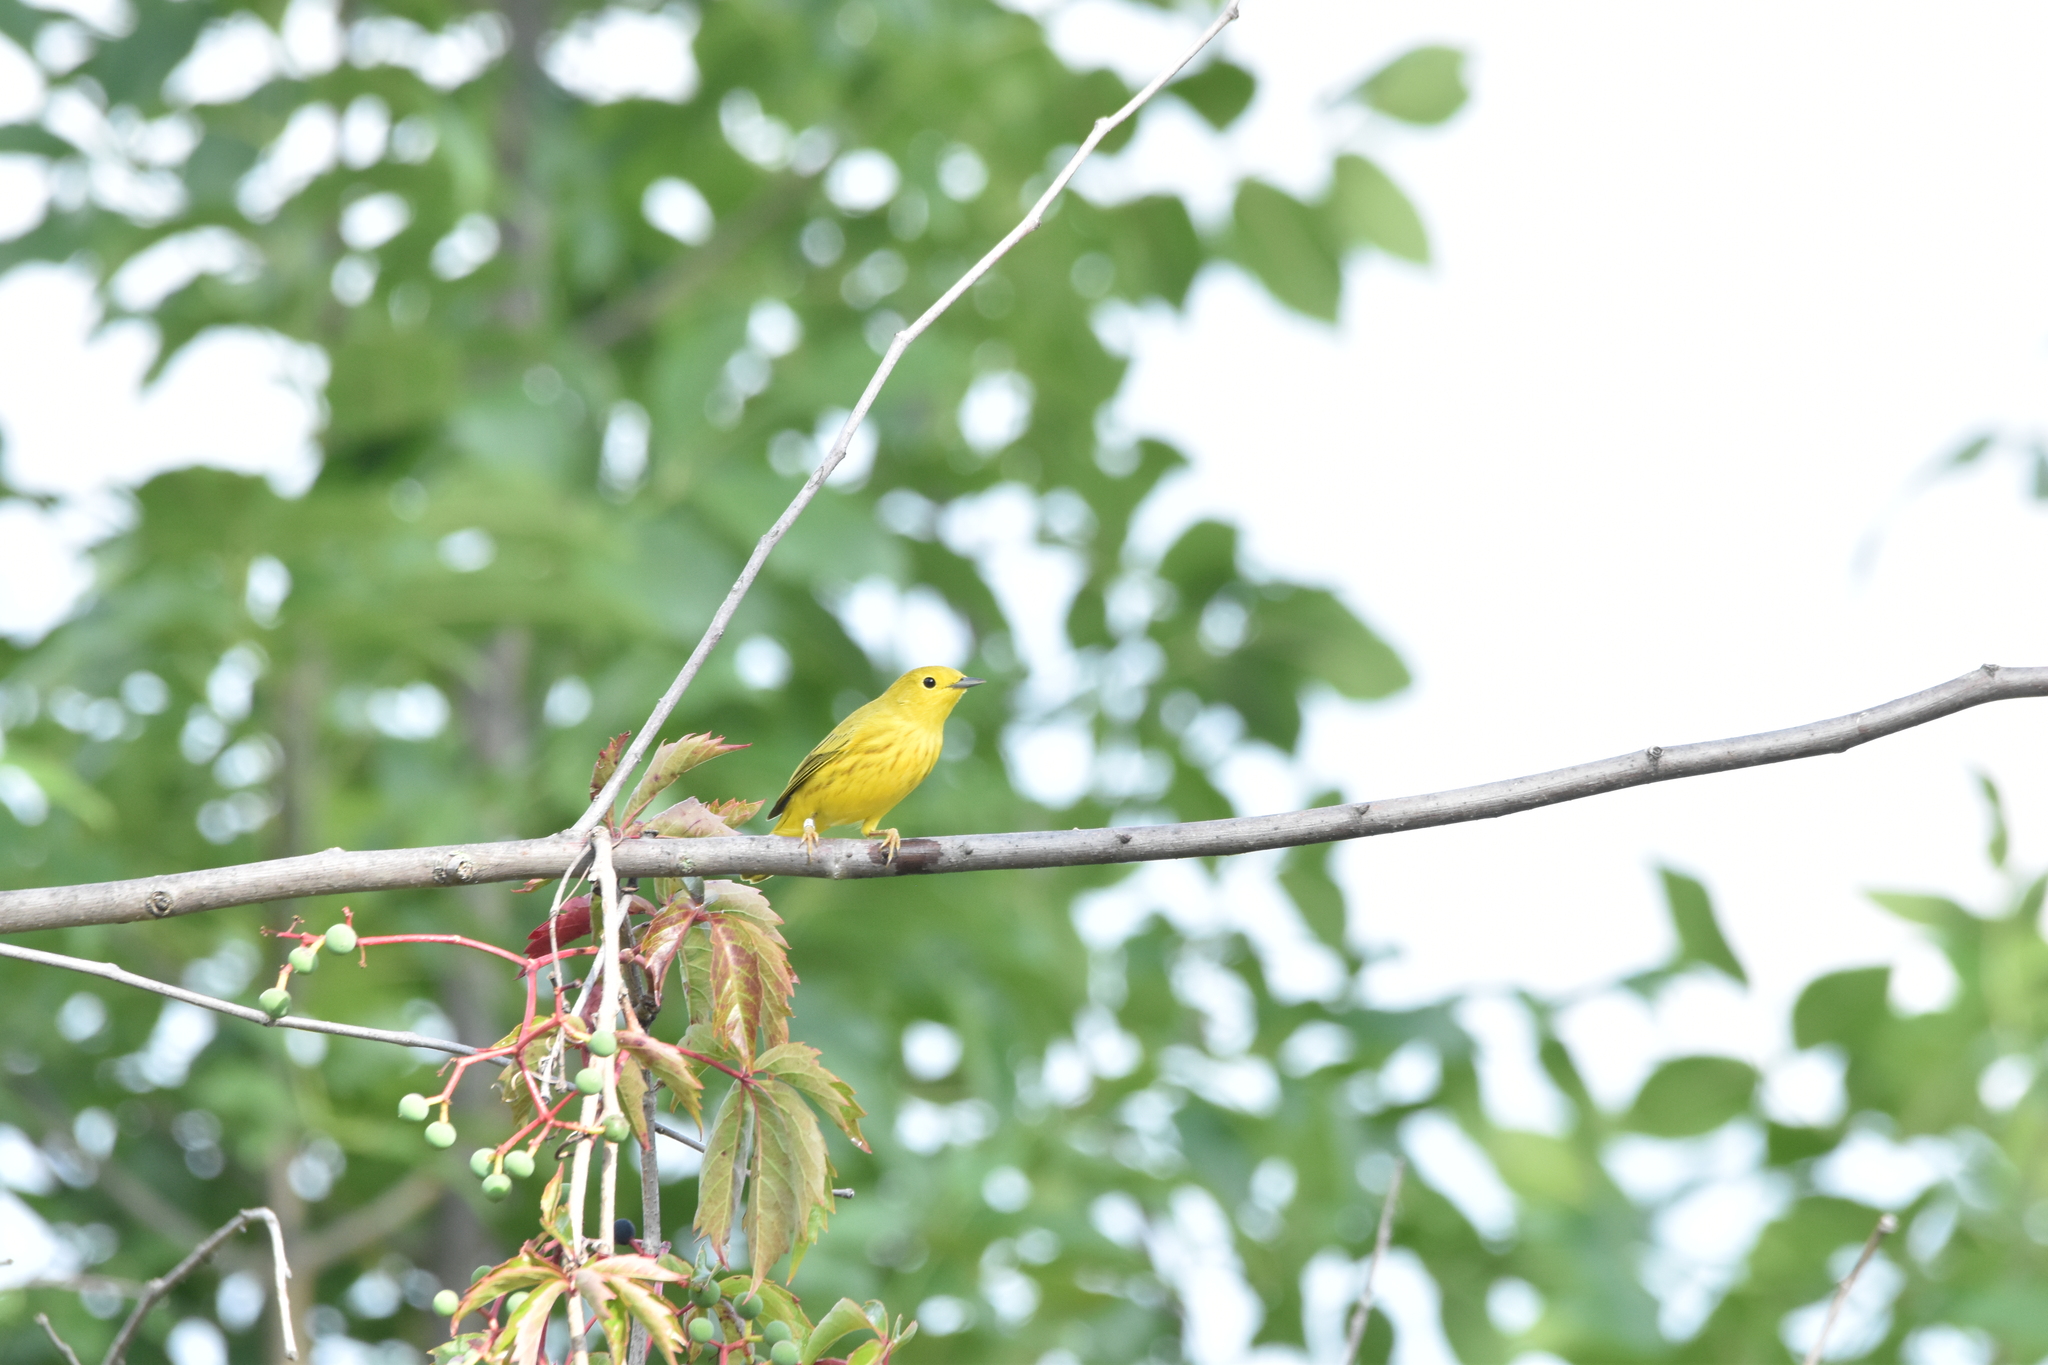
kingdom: Animalia
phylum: Chordata
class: Aves
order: Passeriformes
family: Parulidae
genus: Setophaga
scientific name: Setophaga petechia
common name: Yellow warbler
